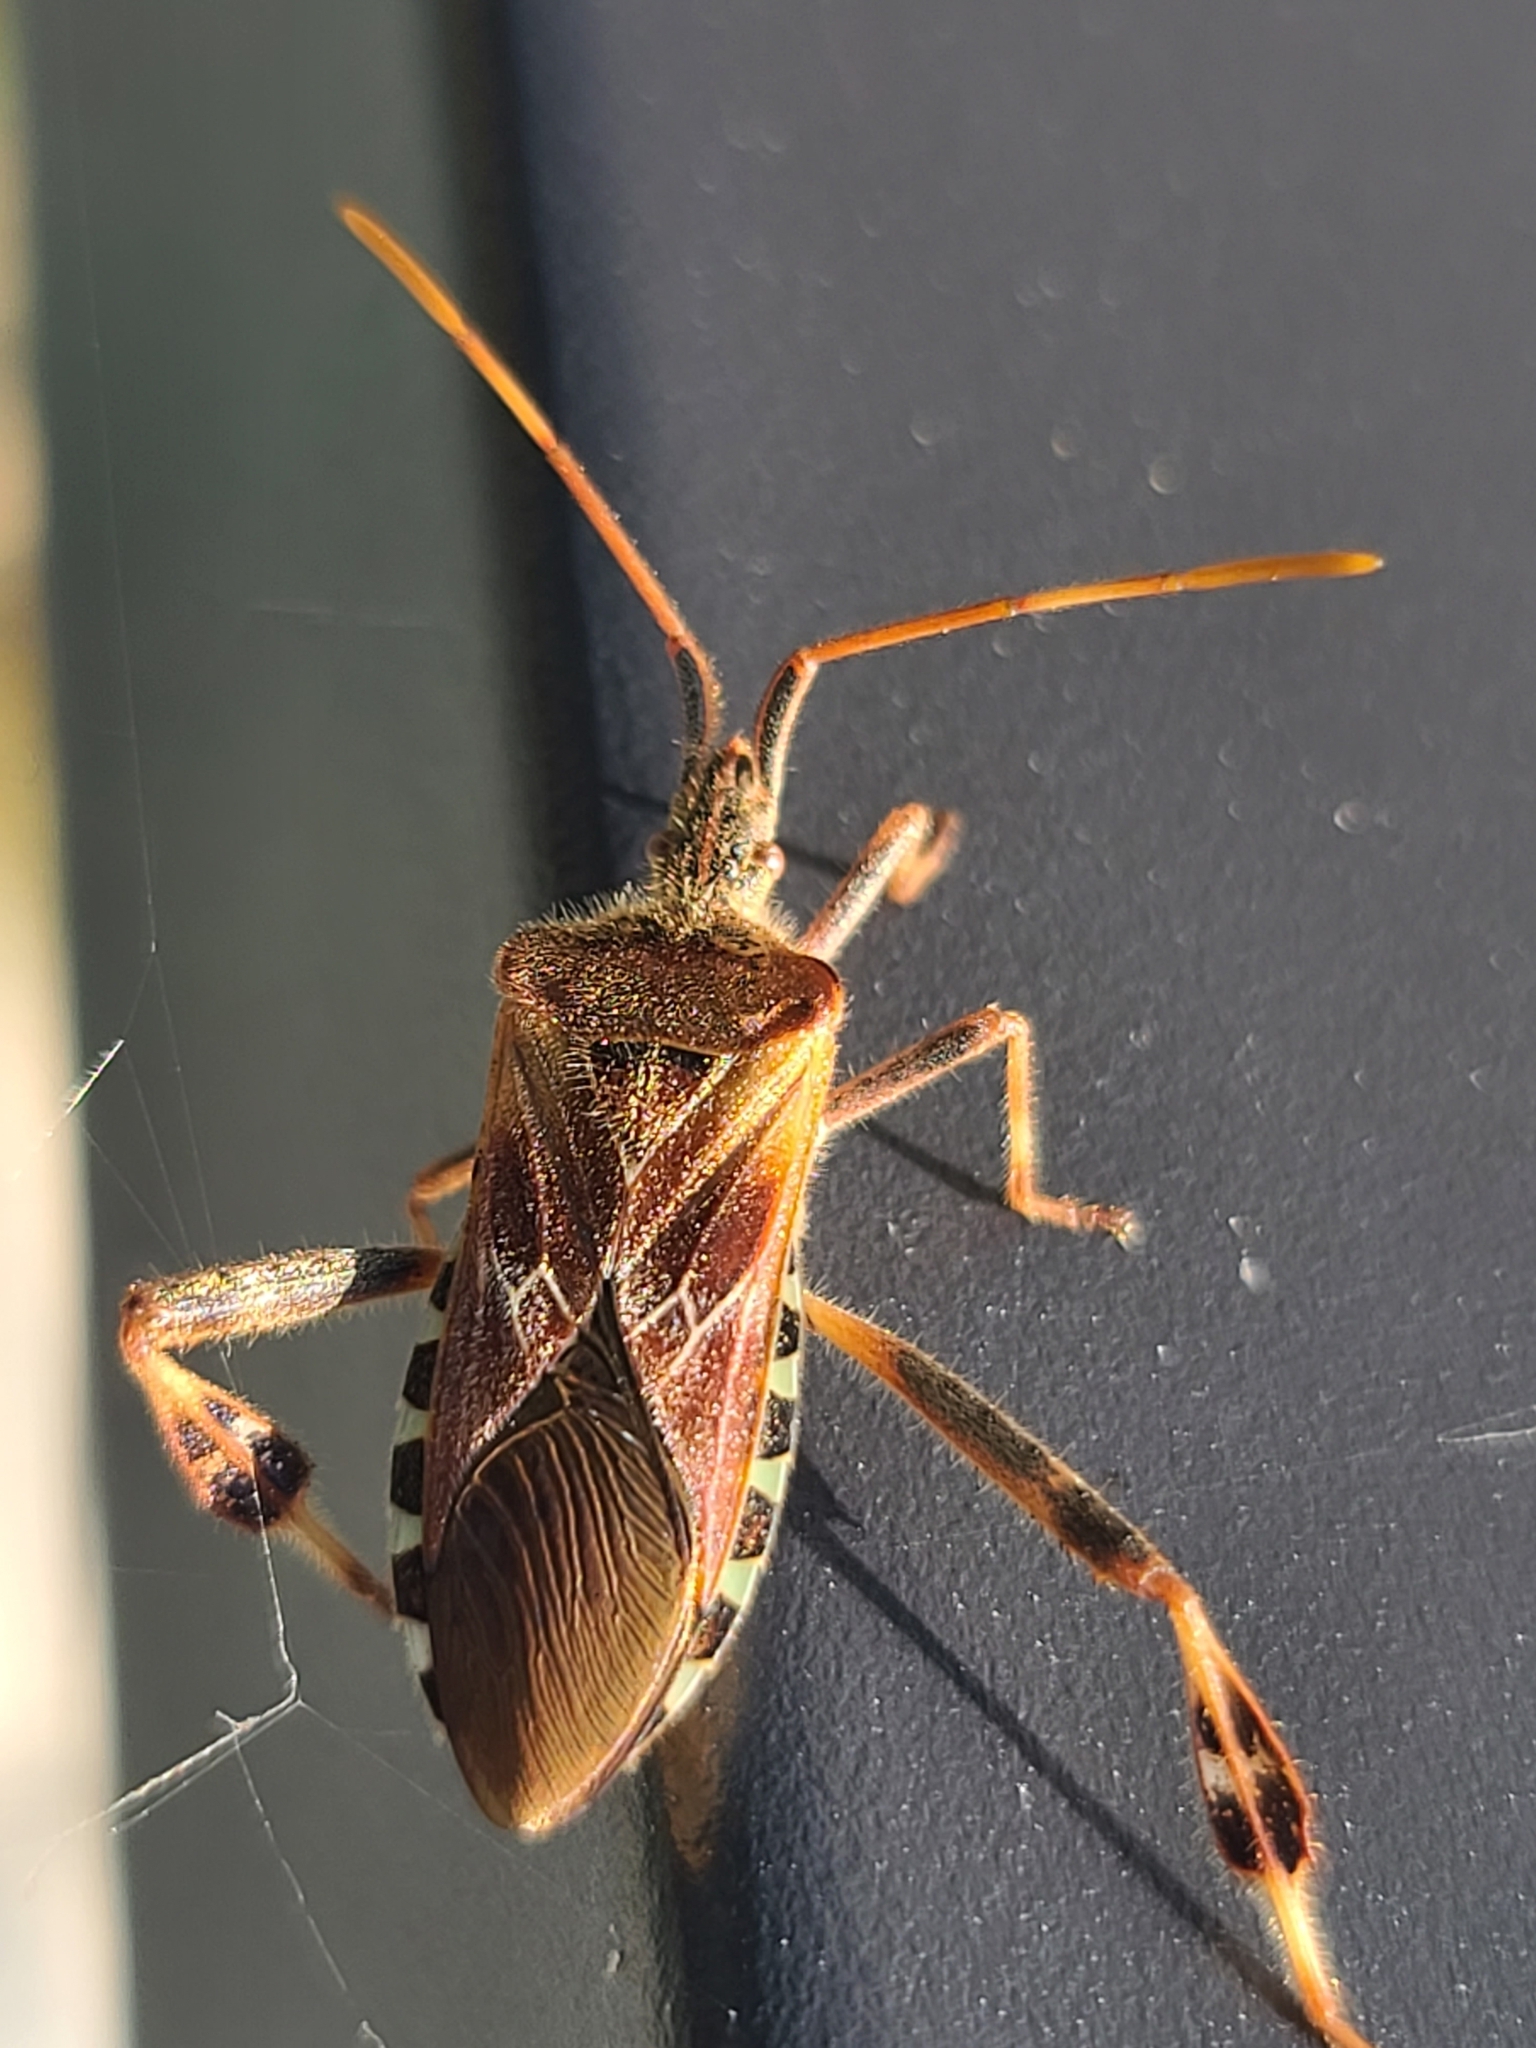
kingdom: Animalia
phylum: Arthropoda
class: Insecta
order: Hemiptera
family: Coreidae
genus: Leptoglossus
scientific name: Leptoglossus occidentalis
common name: Western conifer-seed bug
